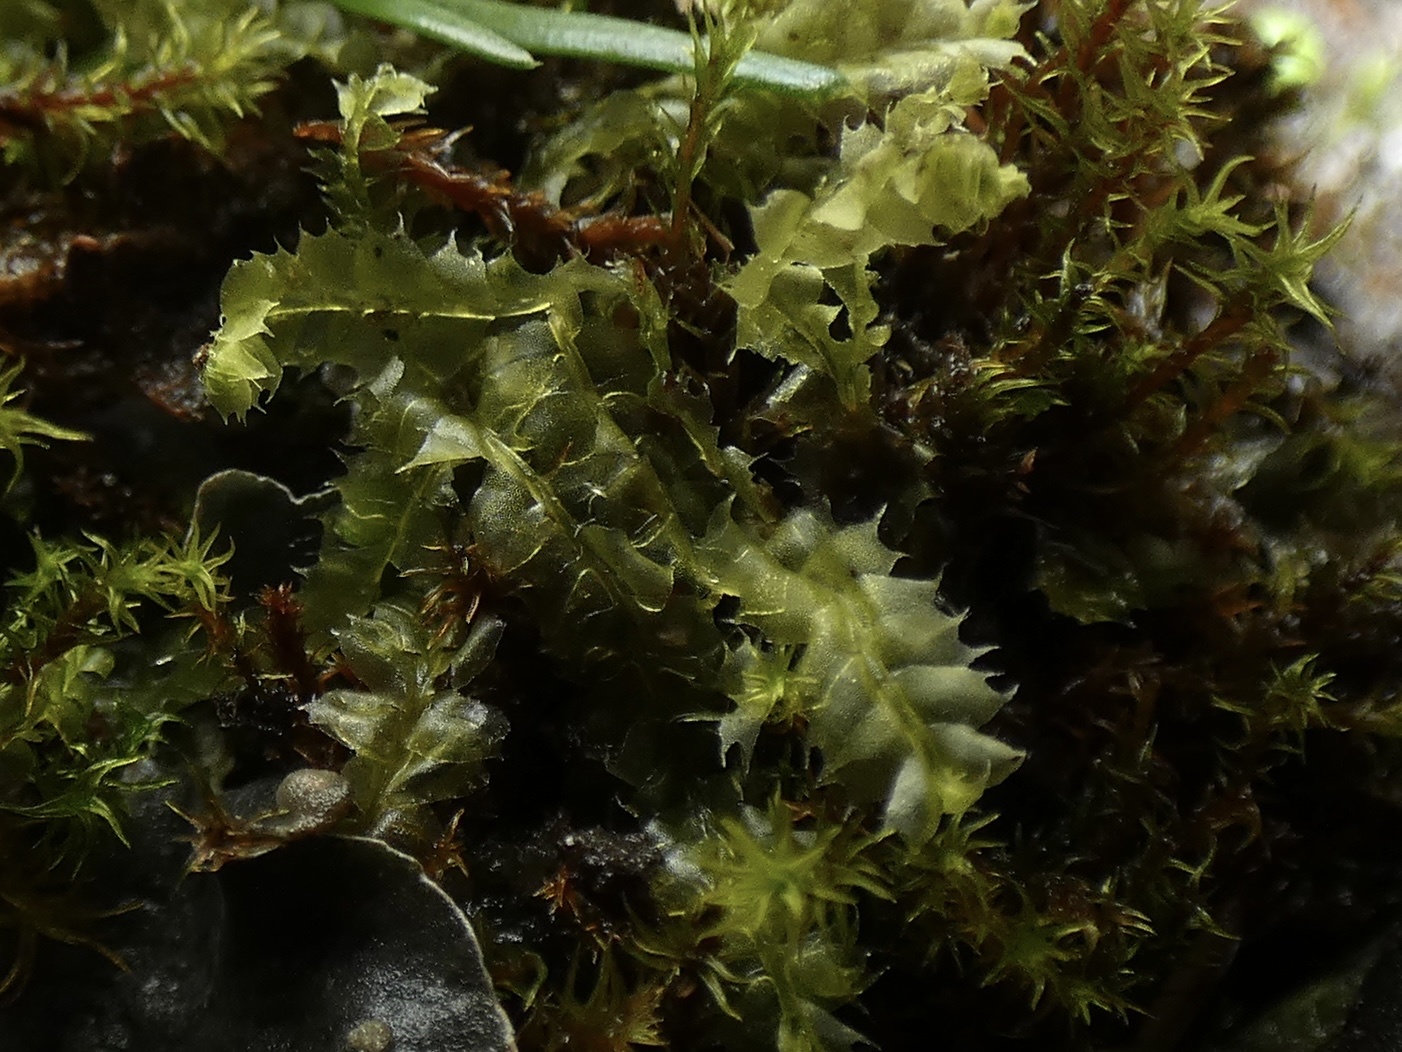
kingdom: Plantae
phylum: Marchantiophyta
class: Jungermanniopsida
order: Jungermanniales
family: Lophocoleaceae
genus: Lophocolea
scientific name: Lophocolea bidentata
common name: Bifid crestwort
